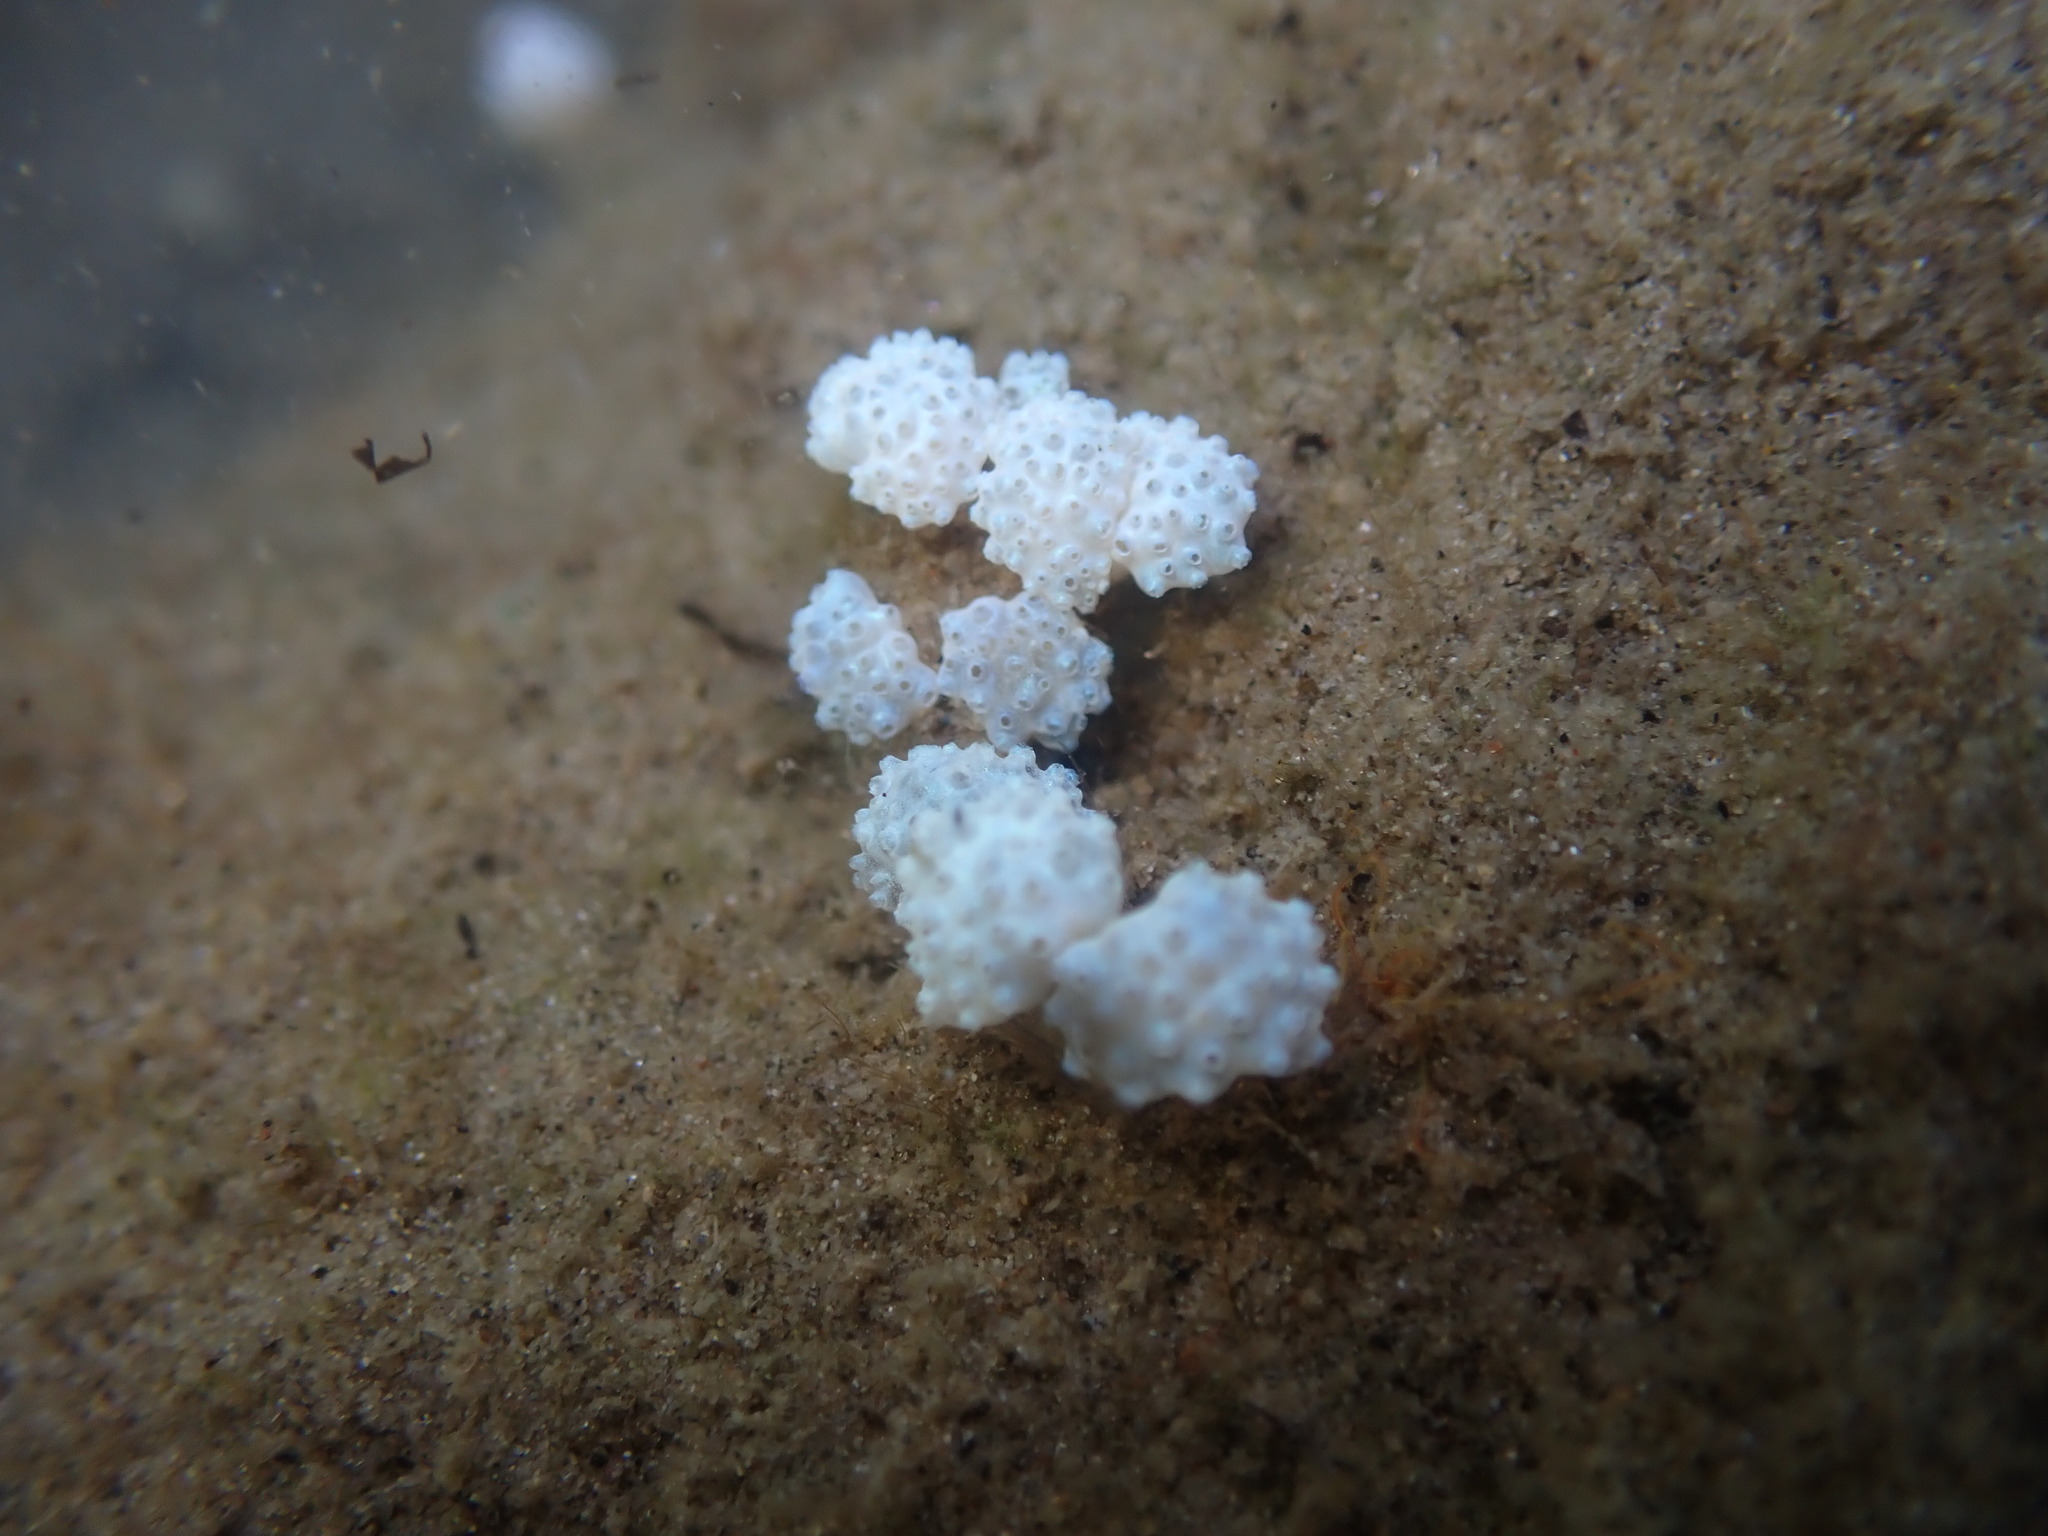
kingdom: Animalia
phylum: Chordata
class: Ascidiacea
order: Aplousobranchia
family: Polycitoridae
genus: Eudistoma
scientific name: Eudistoma elongatum
